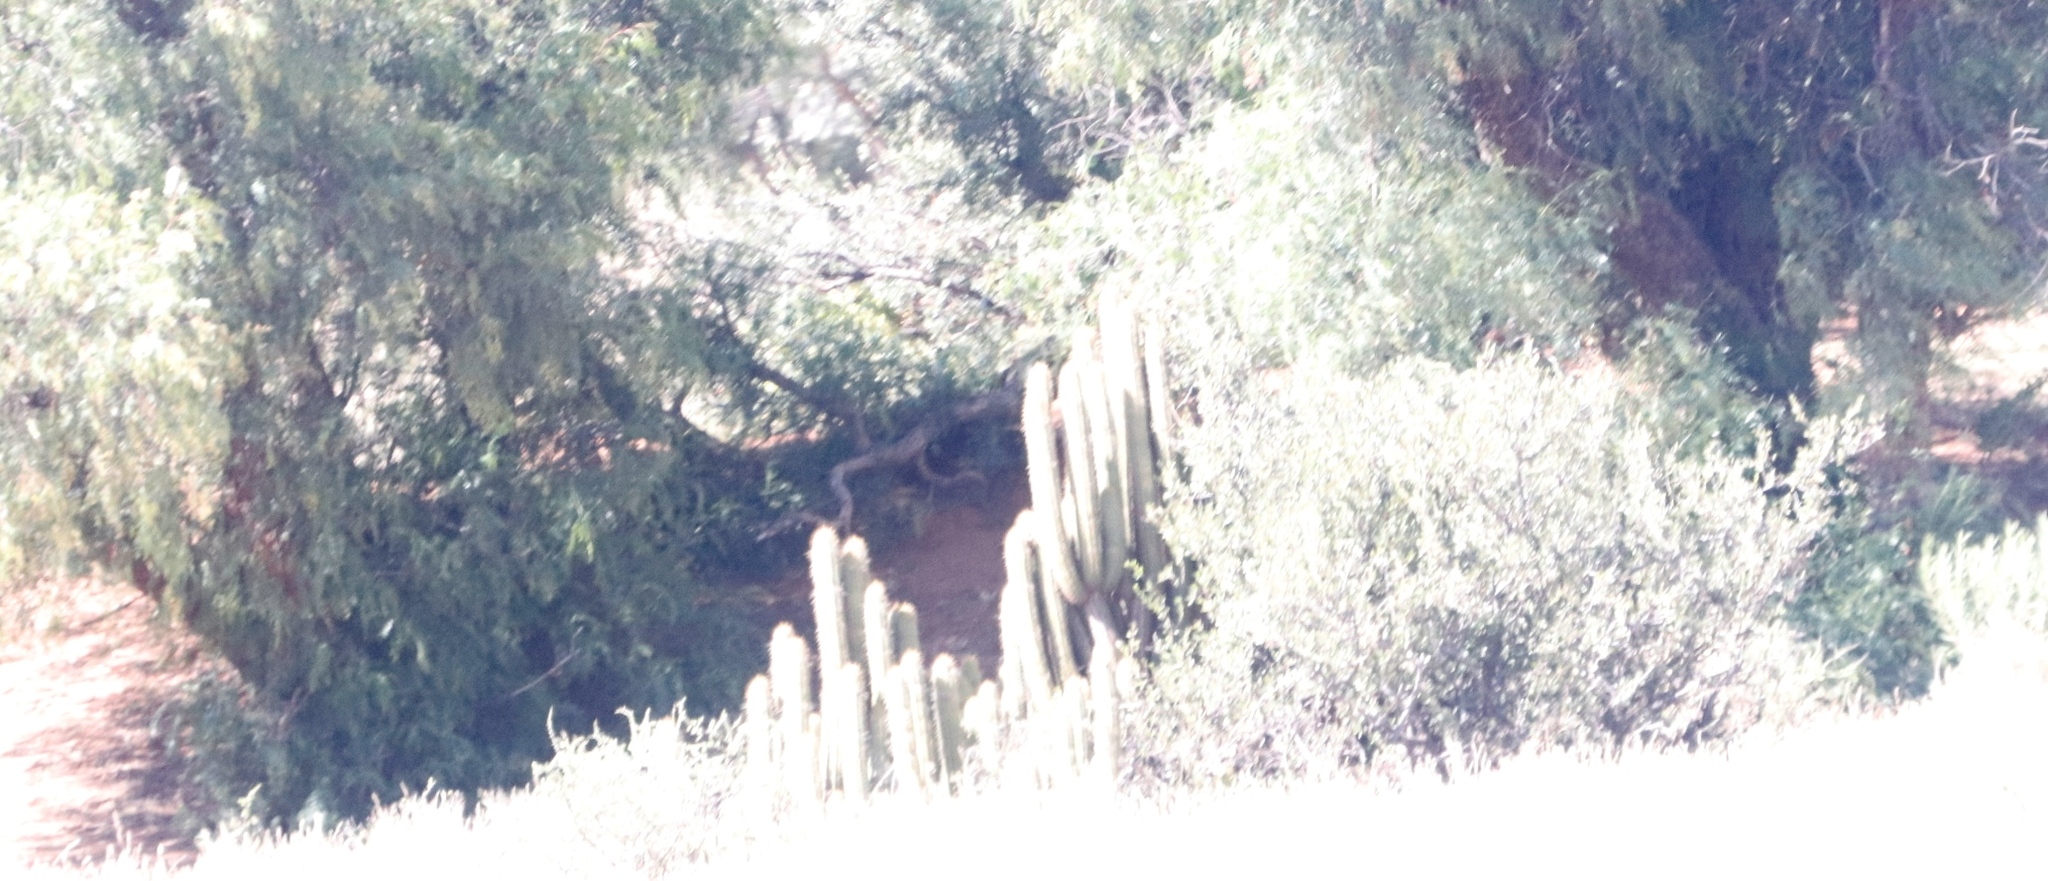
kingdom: Plantae
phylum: Tracheophyta
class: Magnoliopsida
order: Caryophyllales
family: Cactaceae
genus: Soehrensia
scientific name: Soehrensia spachiana
